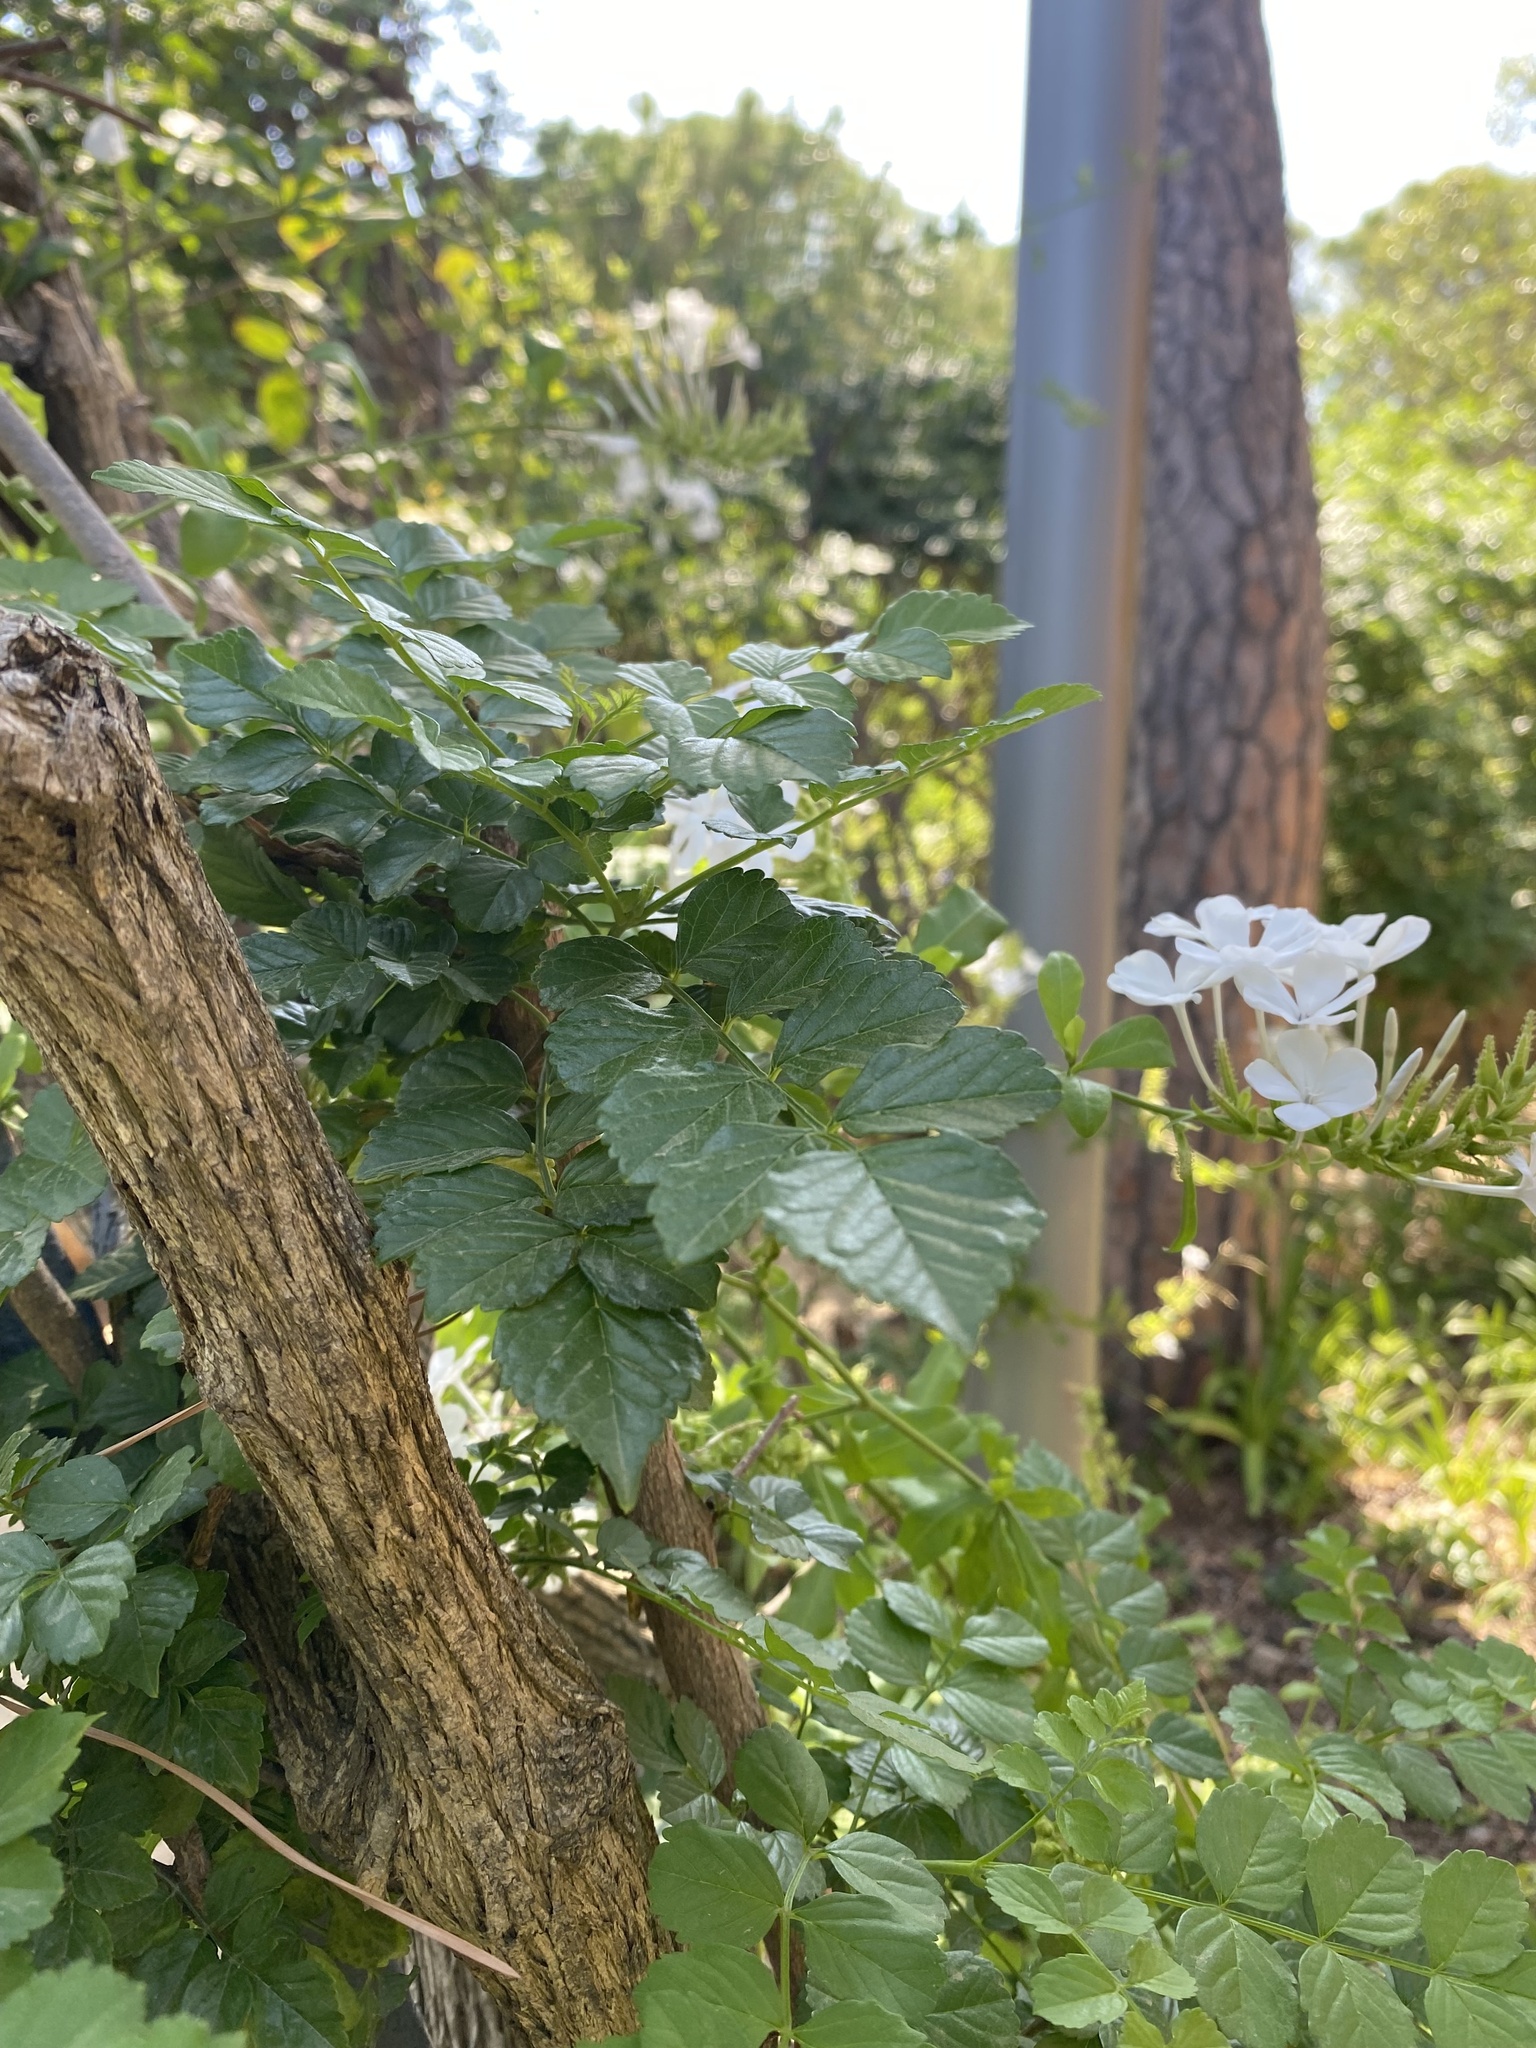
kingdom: Plantae
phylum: Tracheophyta
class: Magnoliopsida
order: Caryophyllales
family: Plumbaginaceae
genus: Plumbago
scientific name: Plumbago auriculata
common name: Cape leadwort
